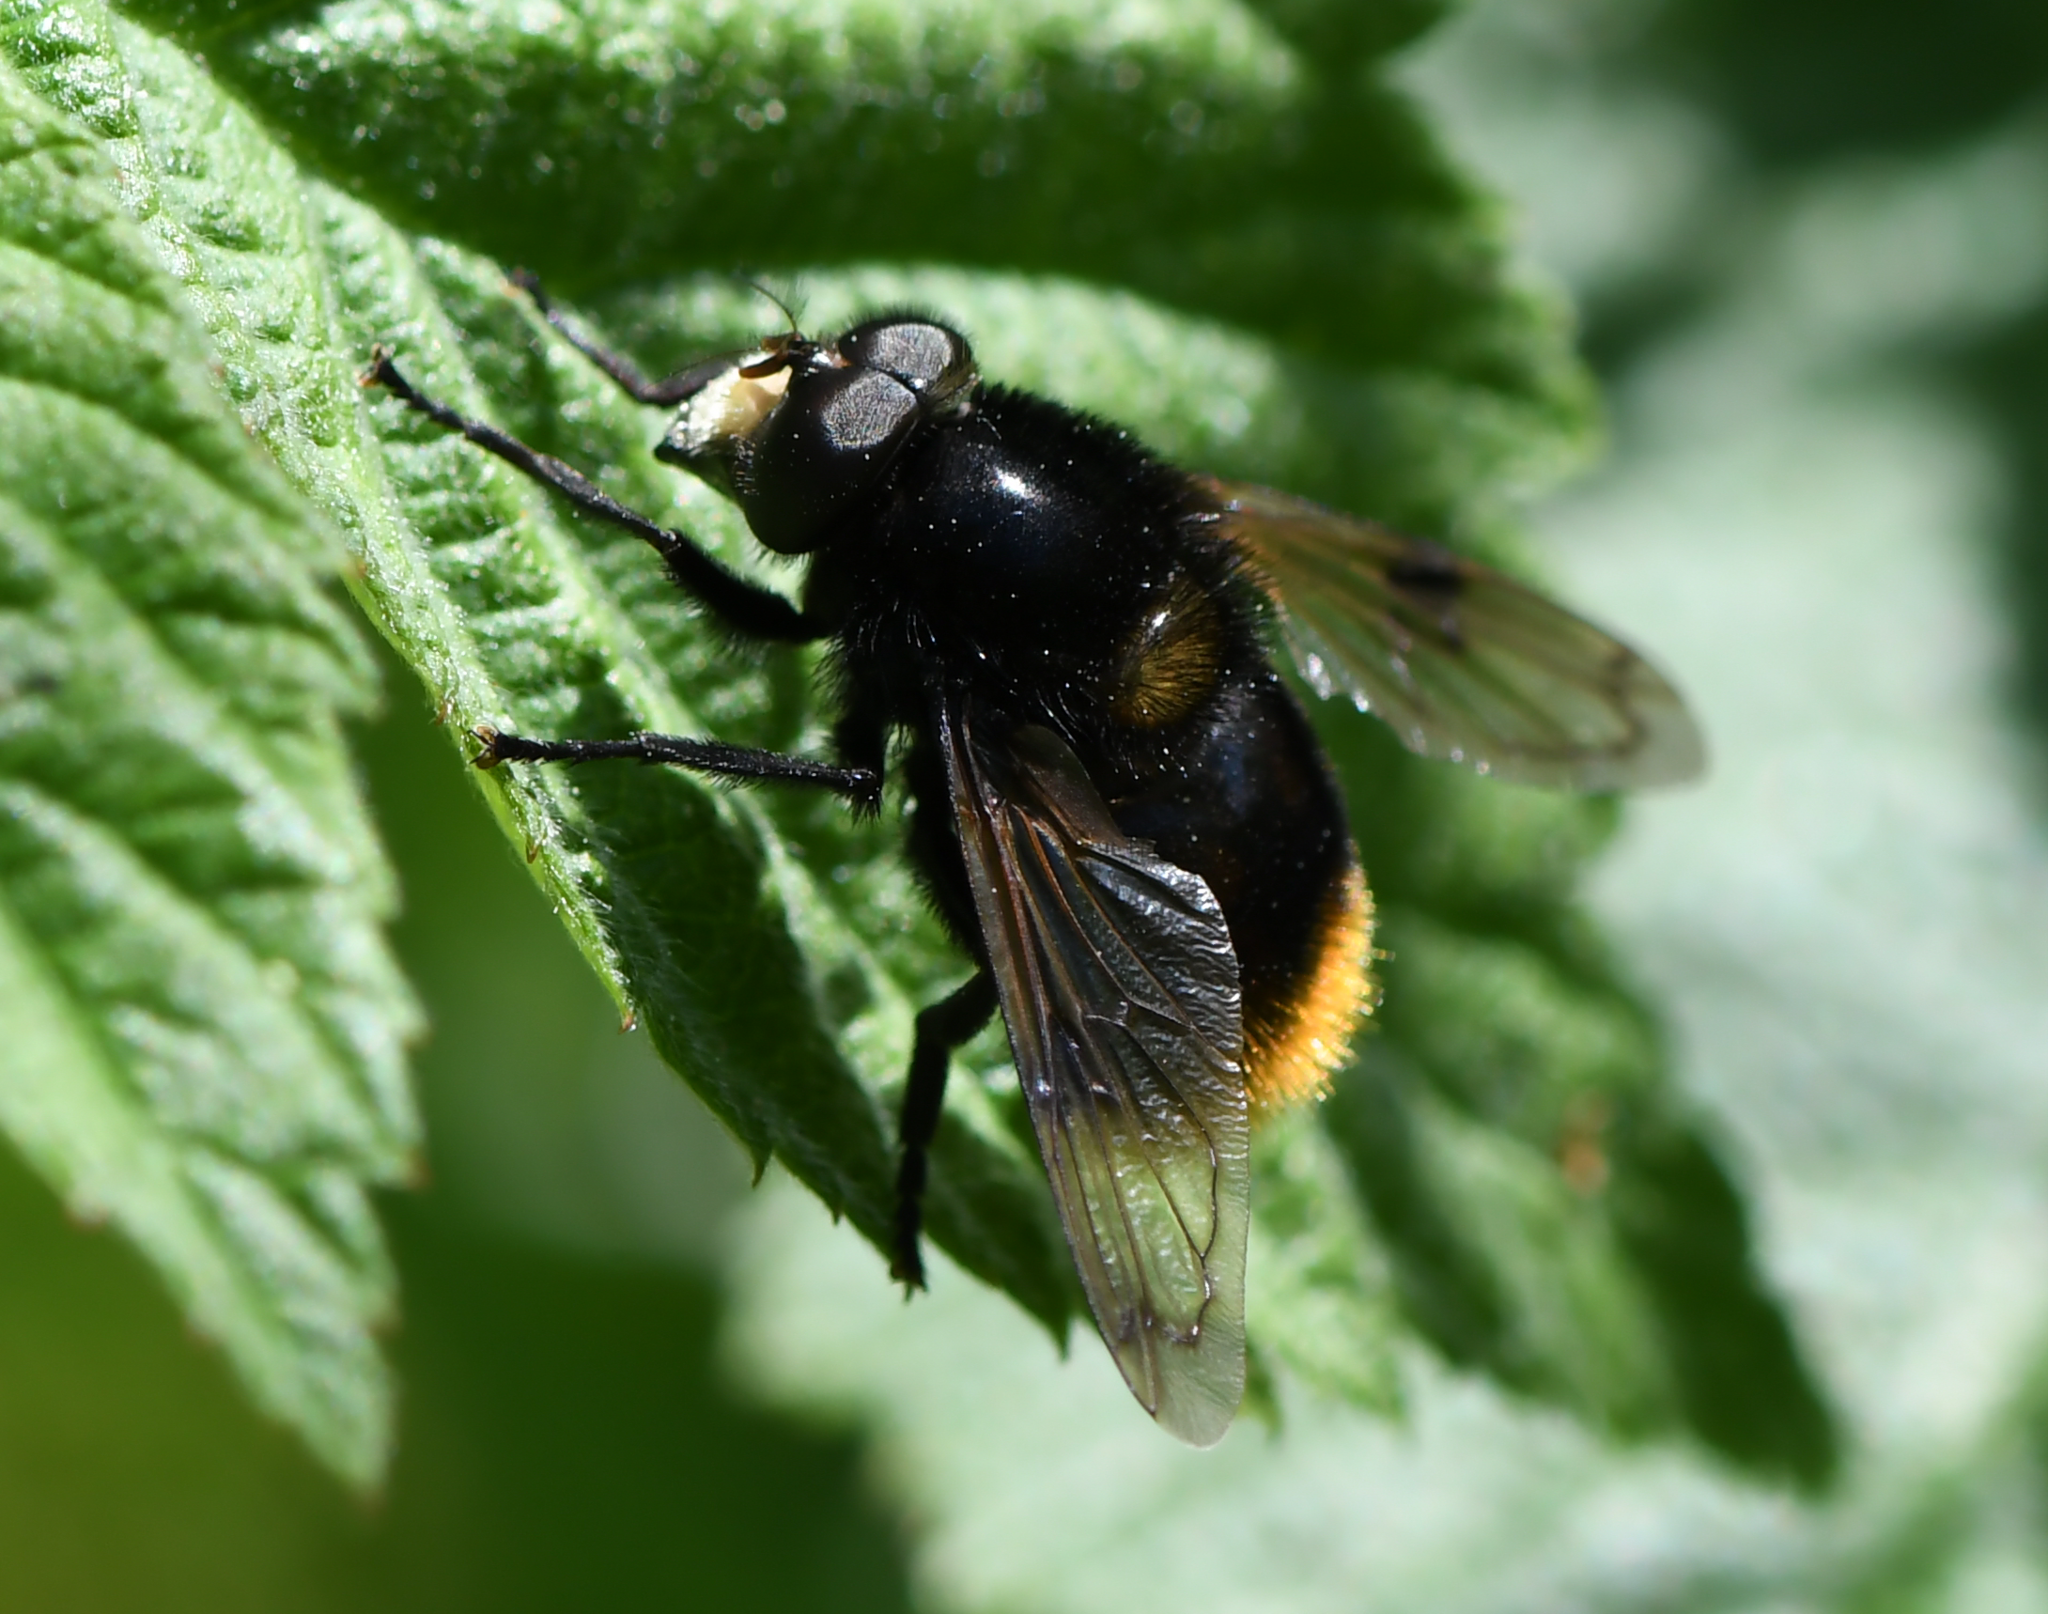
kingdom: Animalia
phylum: Arthropoda
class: Insecta
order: Diptera
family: Syrphidae
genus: Volucella
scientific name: Volucella bombylans
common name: Bumble bee hover fly
